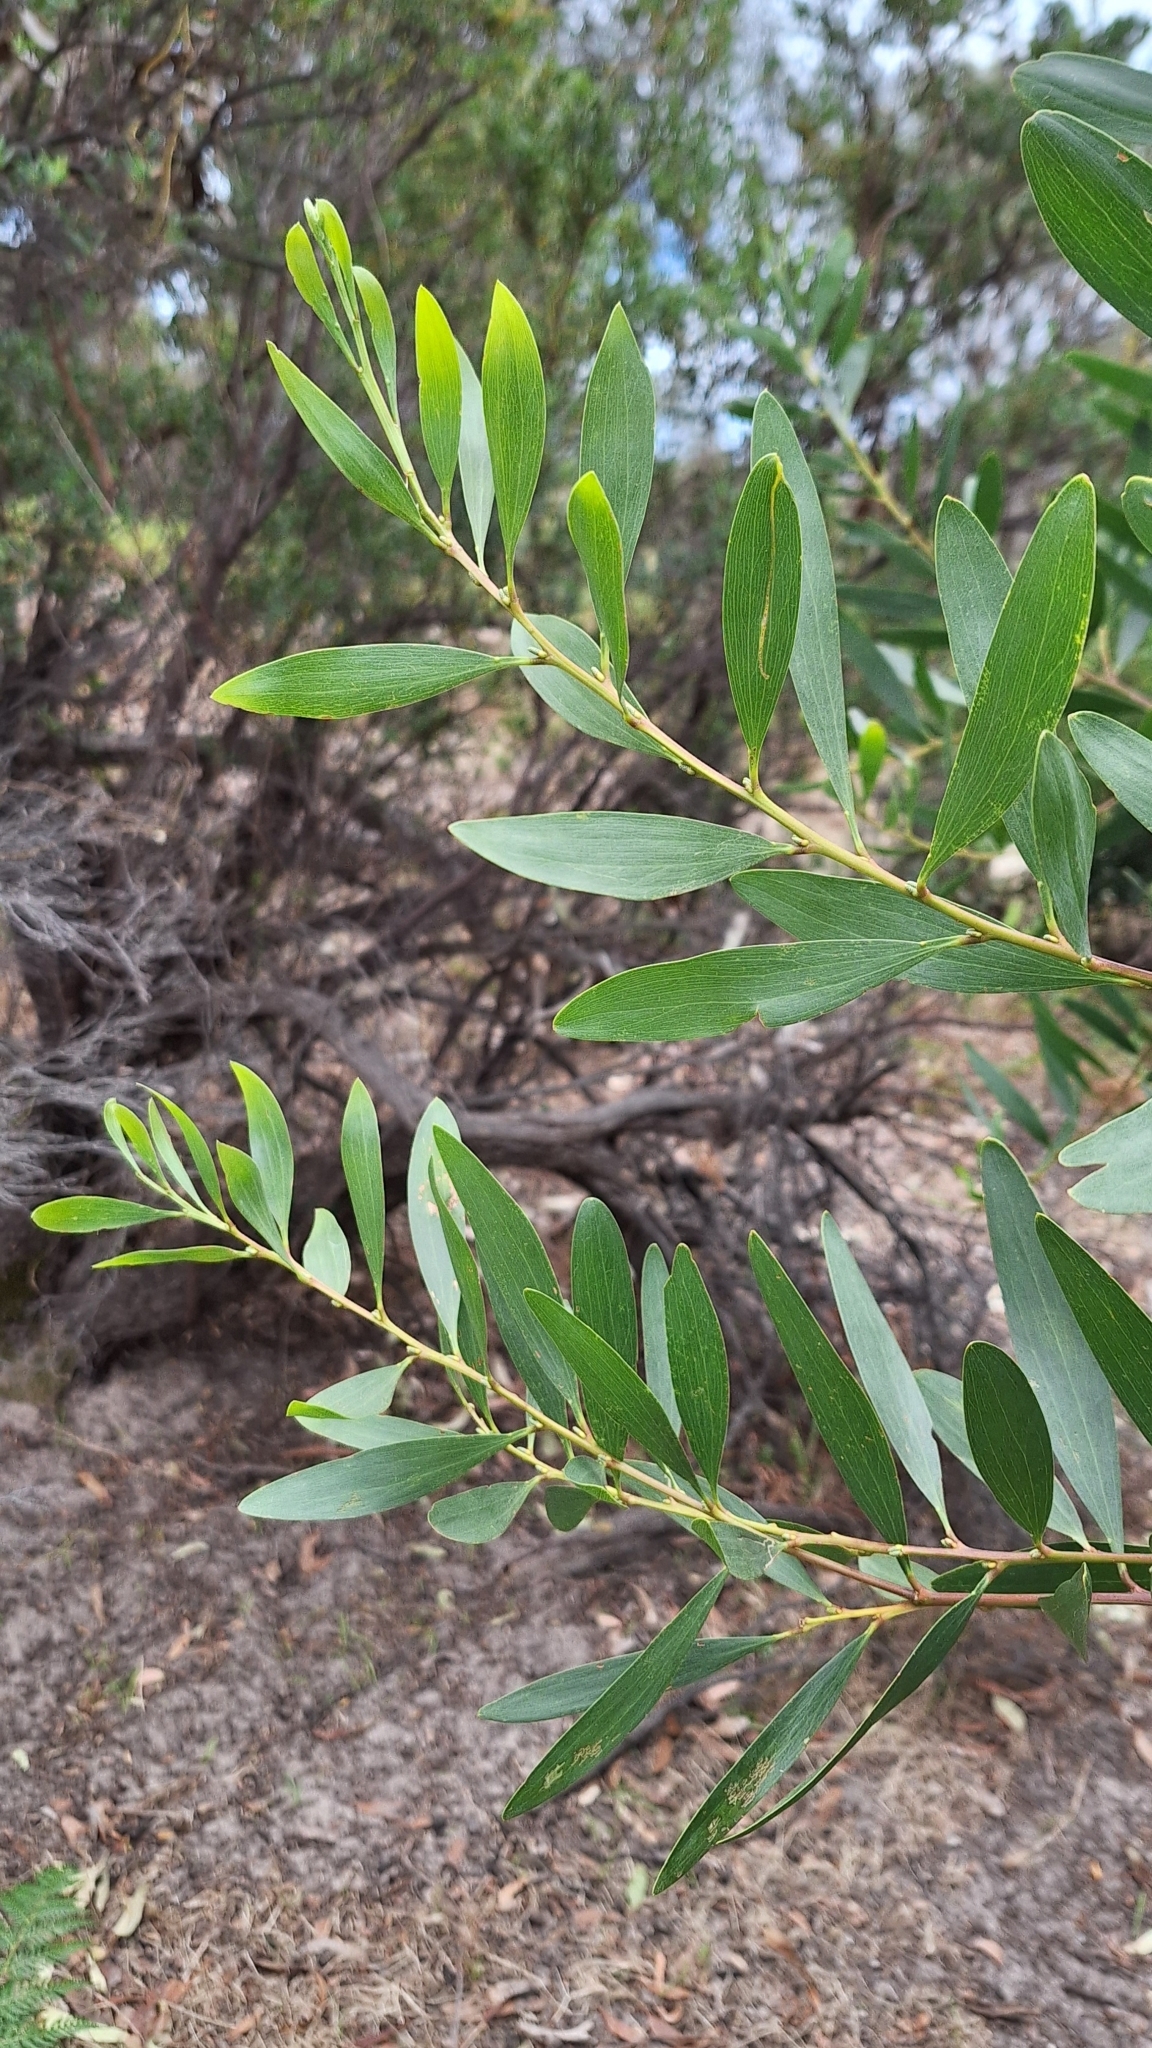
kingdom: Plantae
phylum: Tracheophyta
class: Magnoliopsida
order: Fabales
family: Fabaceae
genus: Acacia
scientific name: Acacia longifolia
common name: Sydney golden wattle
